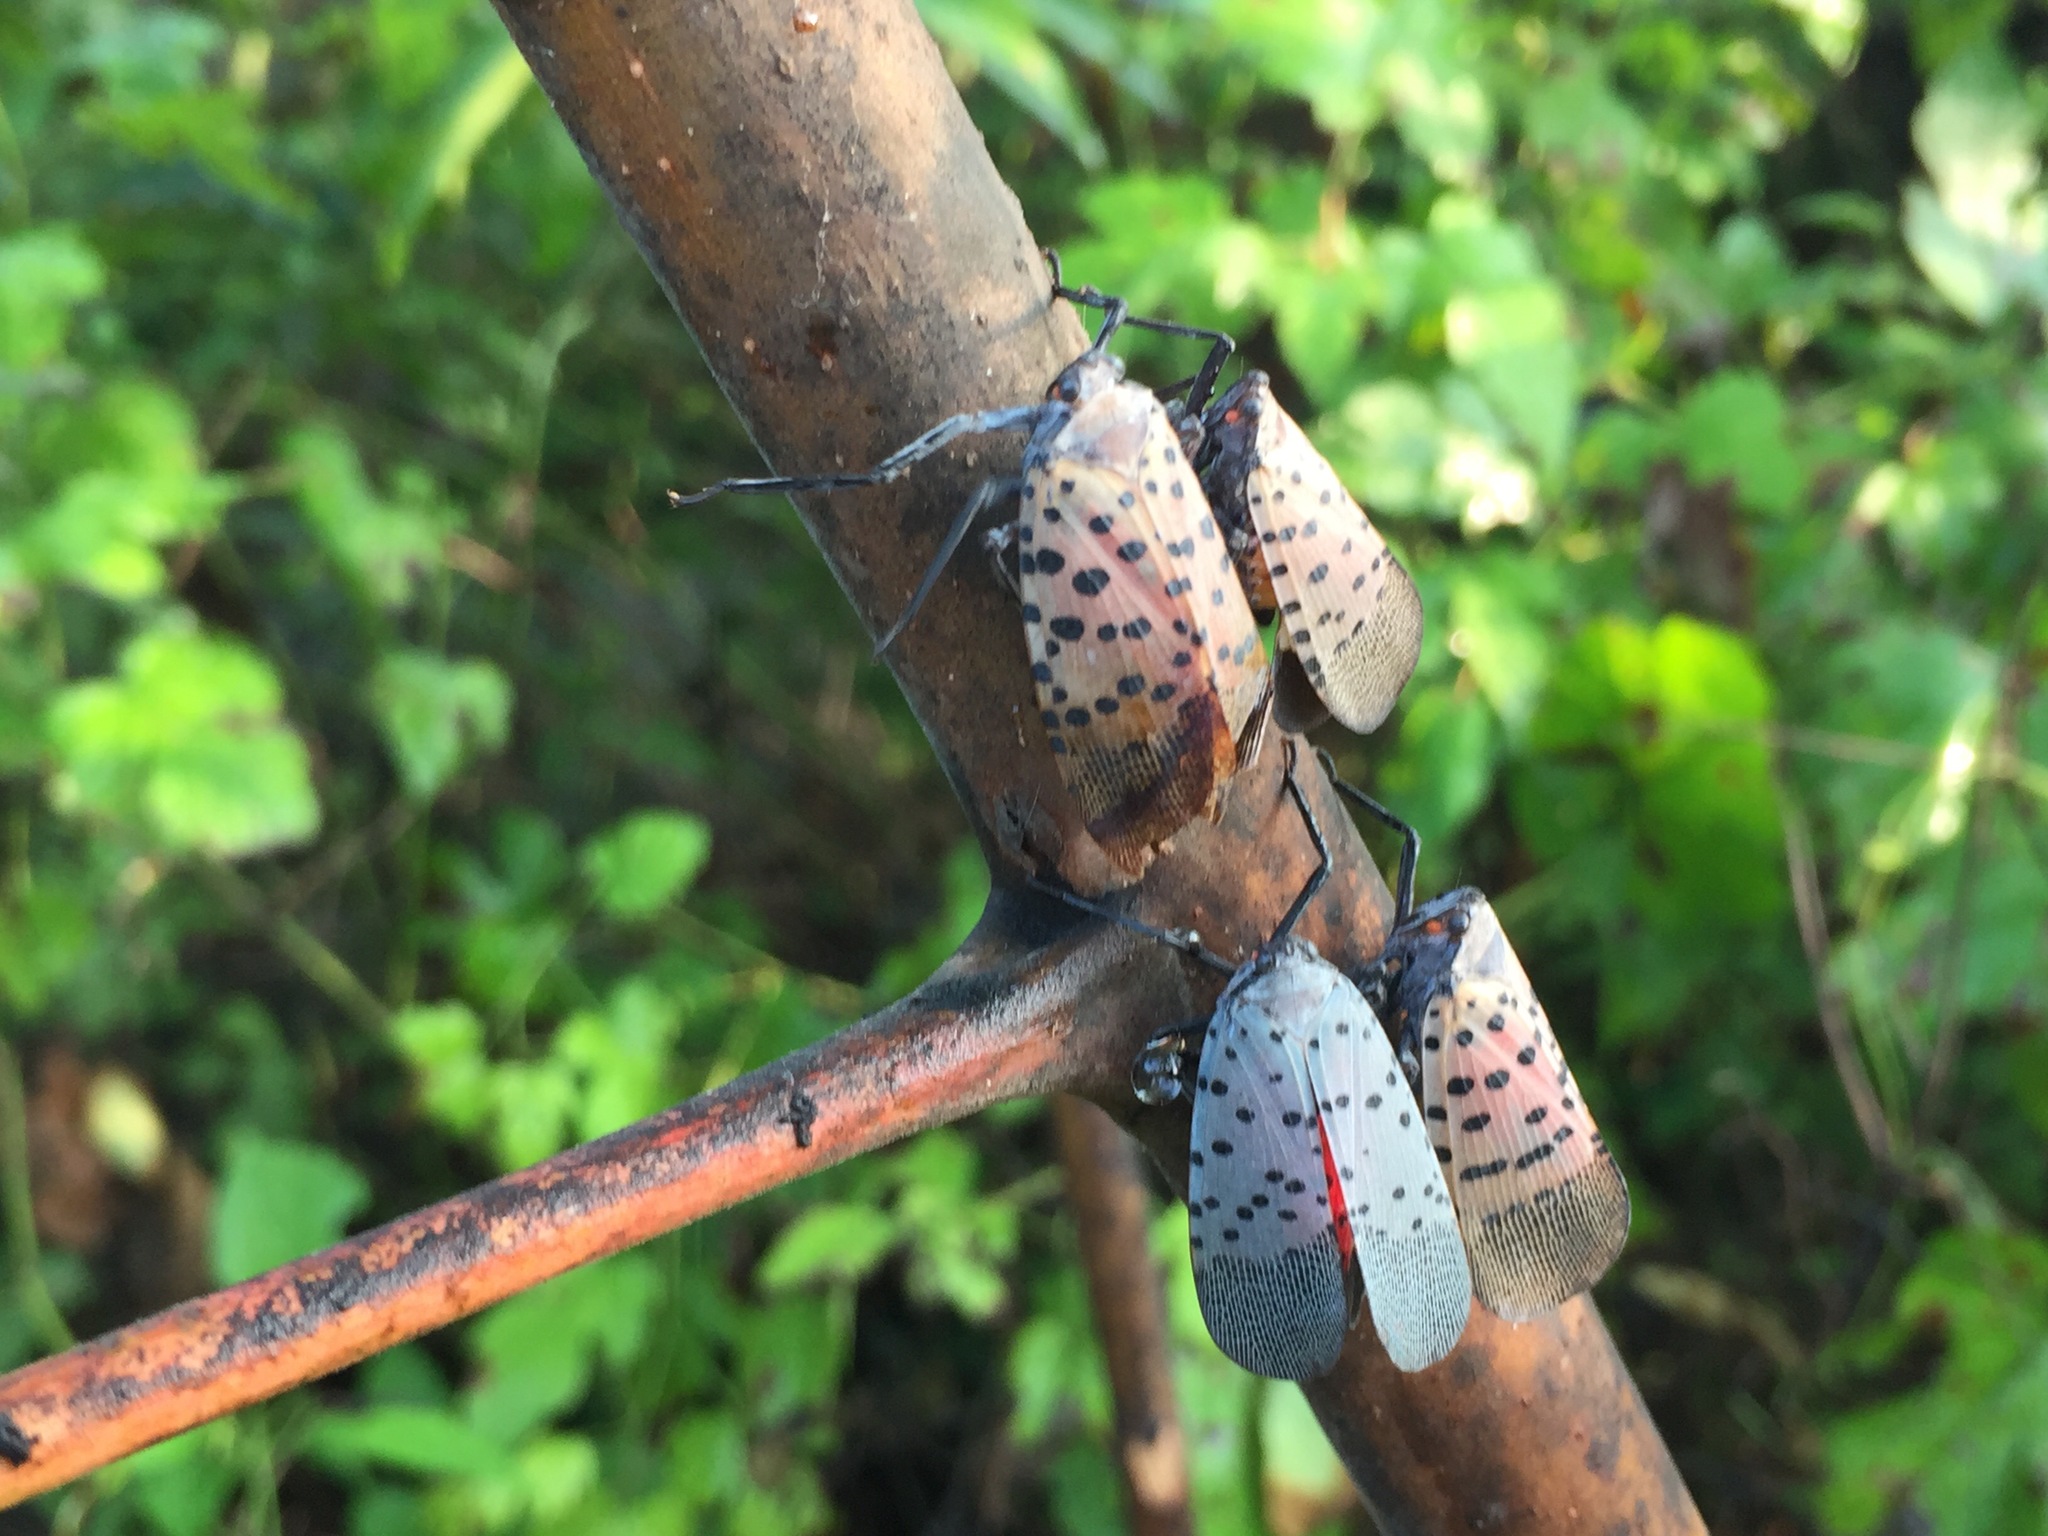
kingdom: Animalia
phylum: Arthropoda
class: Insecta
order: Hemiptera
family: Fulgoridae
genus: Lycorma
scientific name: Lycorma delicatula
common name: Spotted lanternfly
